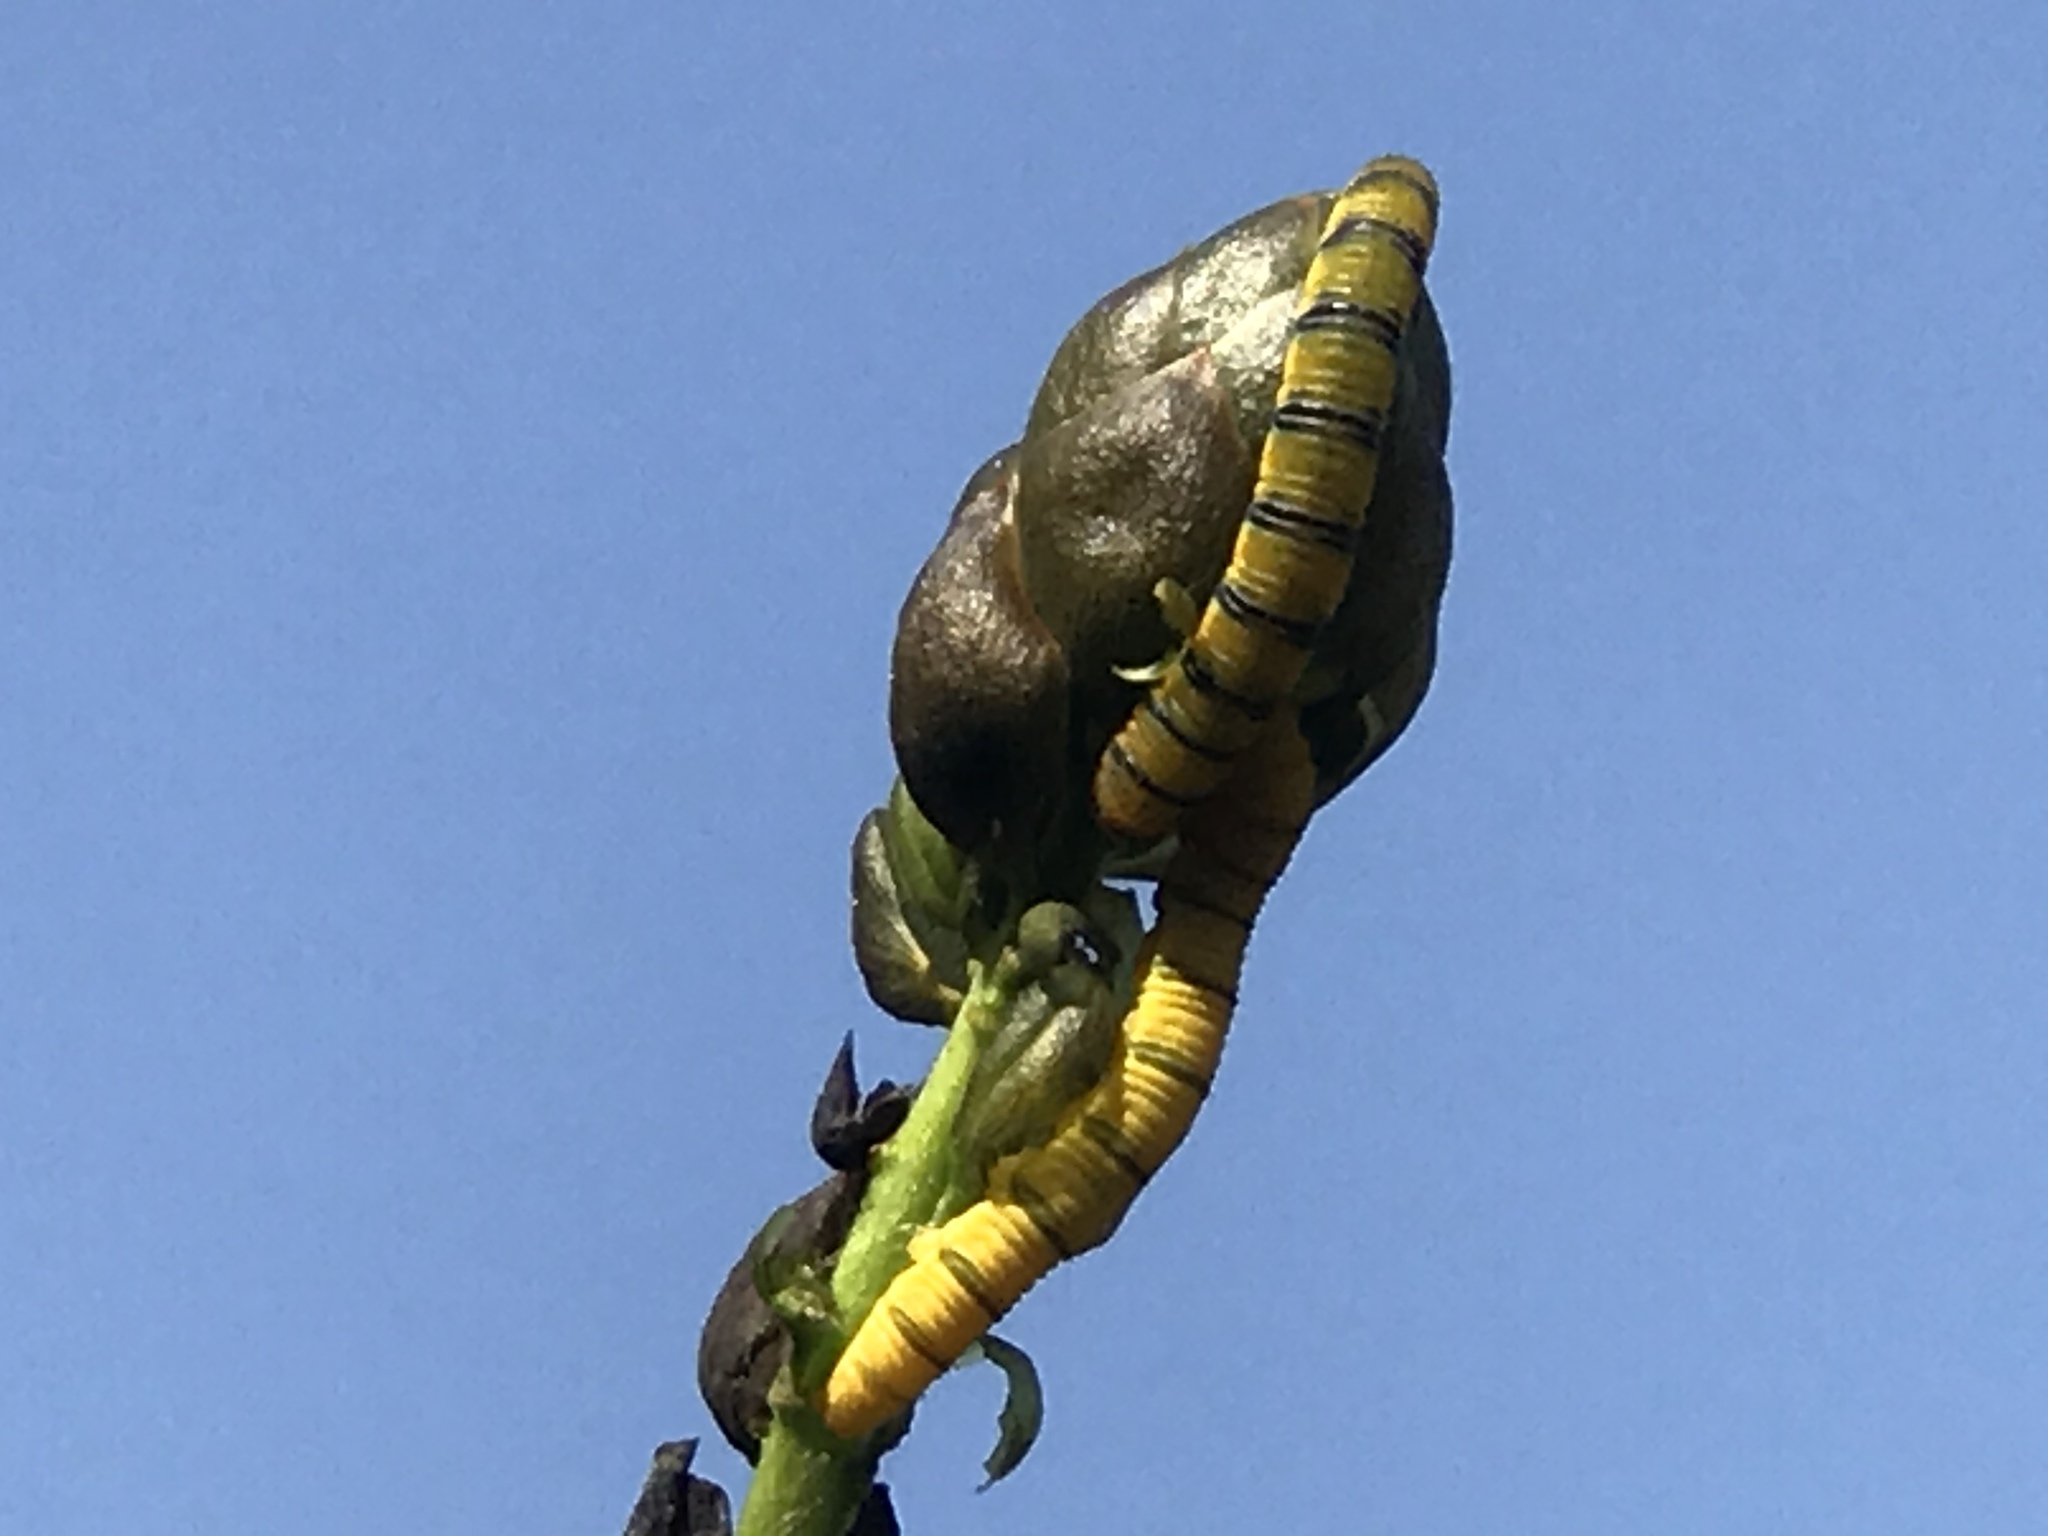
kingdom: Animalia
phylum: Arthropoda
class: Insecta
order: Lepidoptera
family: Pieridae
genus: Phoebis
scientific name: Phoebis sennae
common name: Cloudless sulphur
